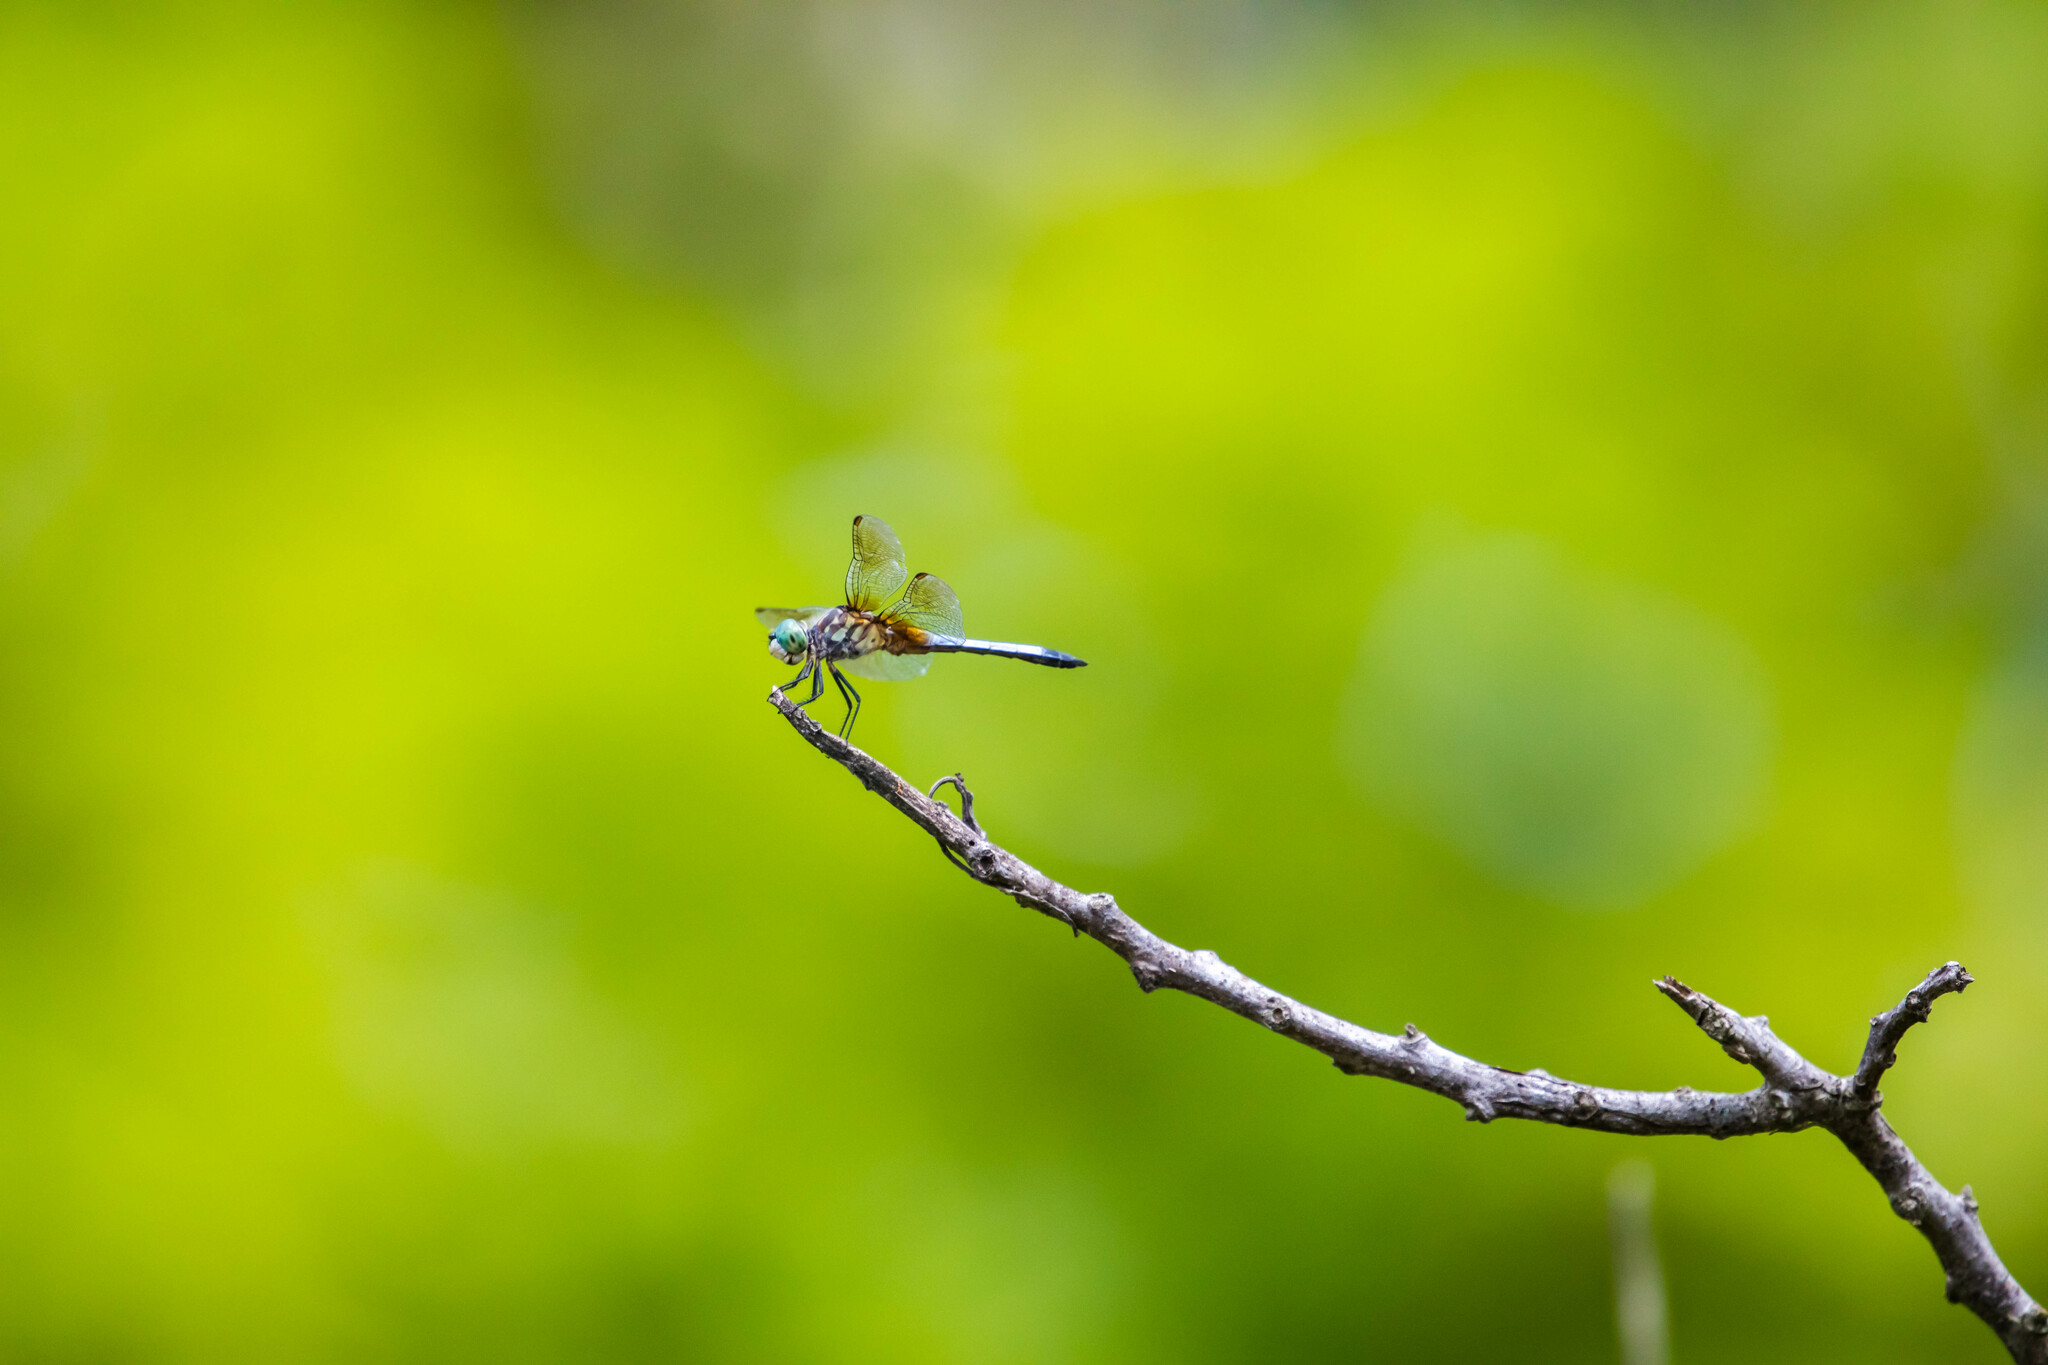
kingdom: Animalia
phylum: Arthropoda
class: Insecta
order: Odonata
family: Libellulidae
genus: Pachydiplax
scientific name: Pachydiplax longipennis
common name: Blue dasher
